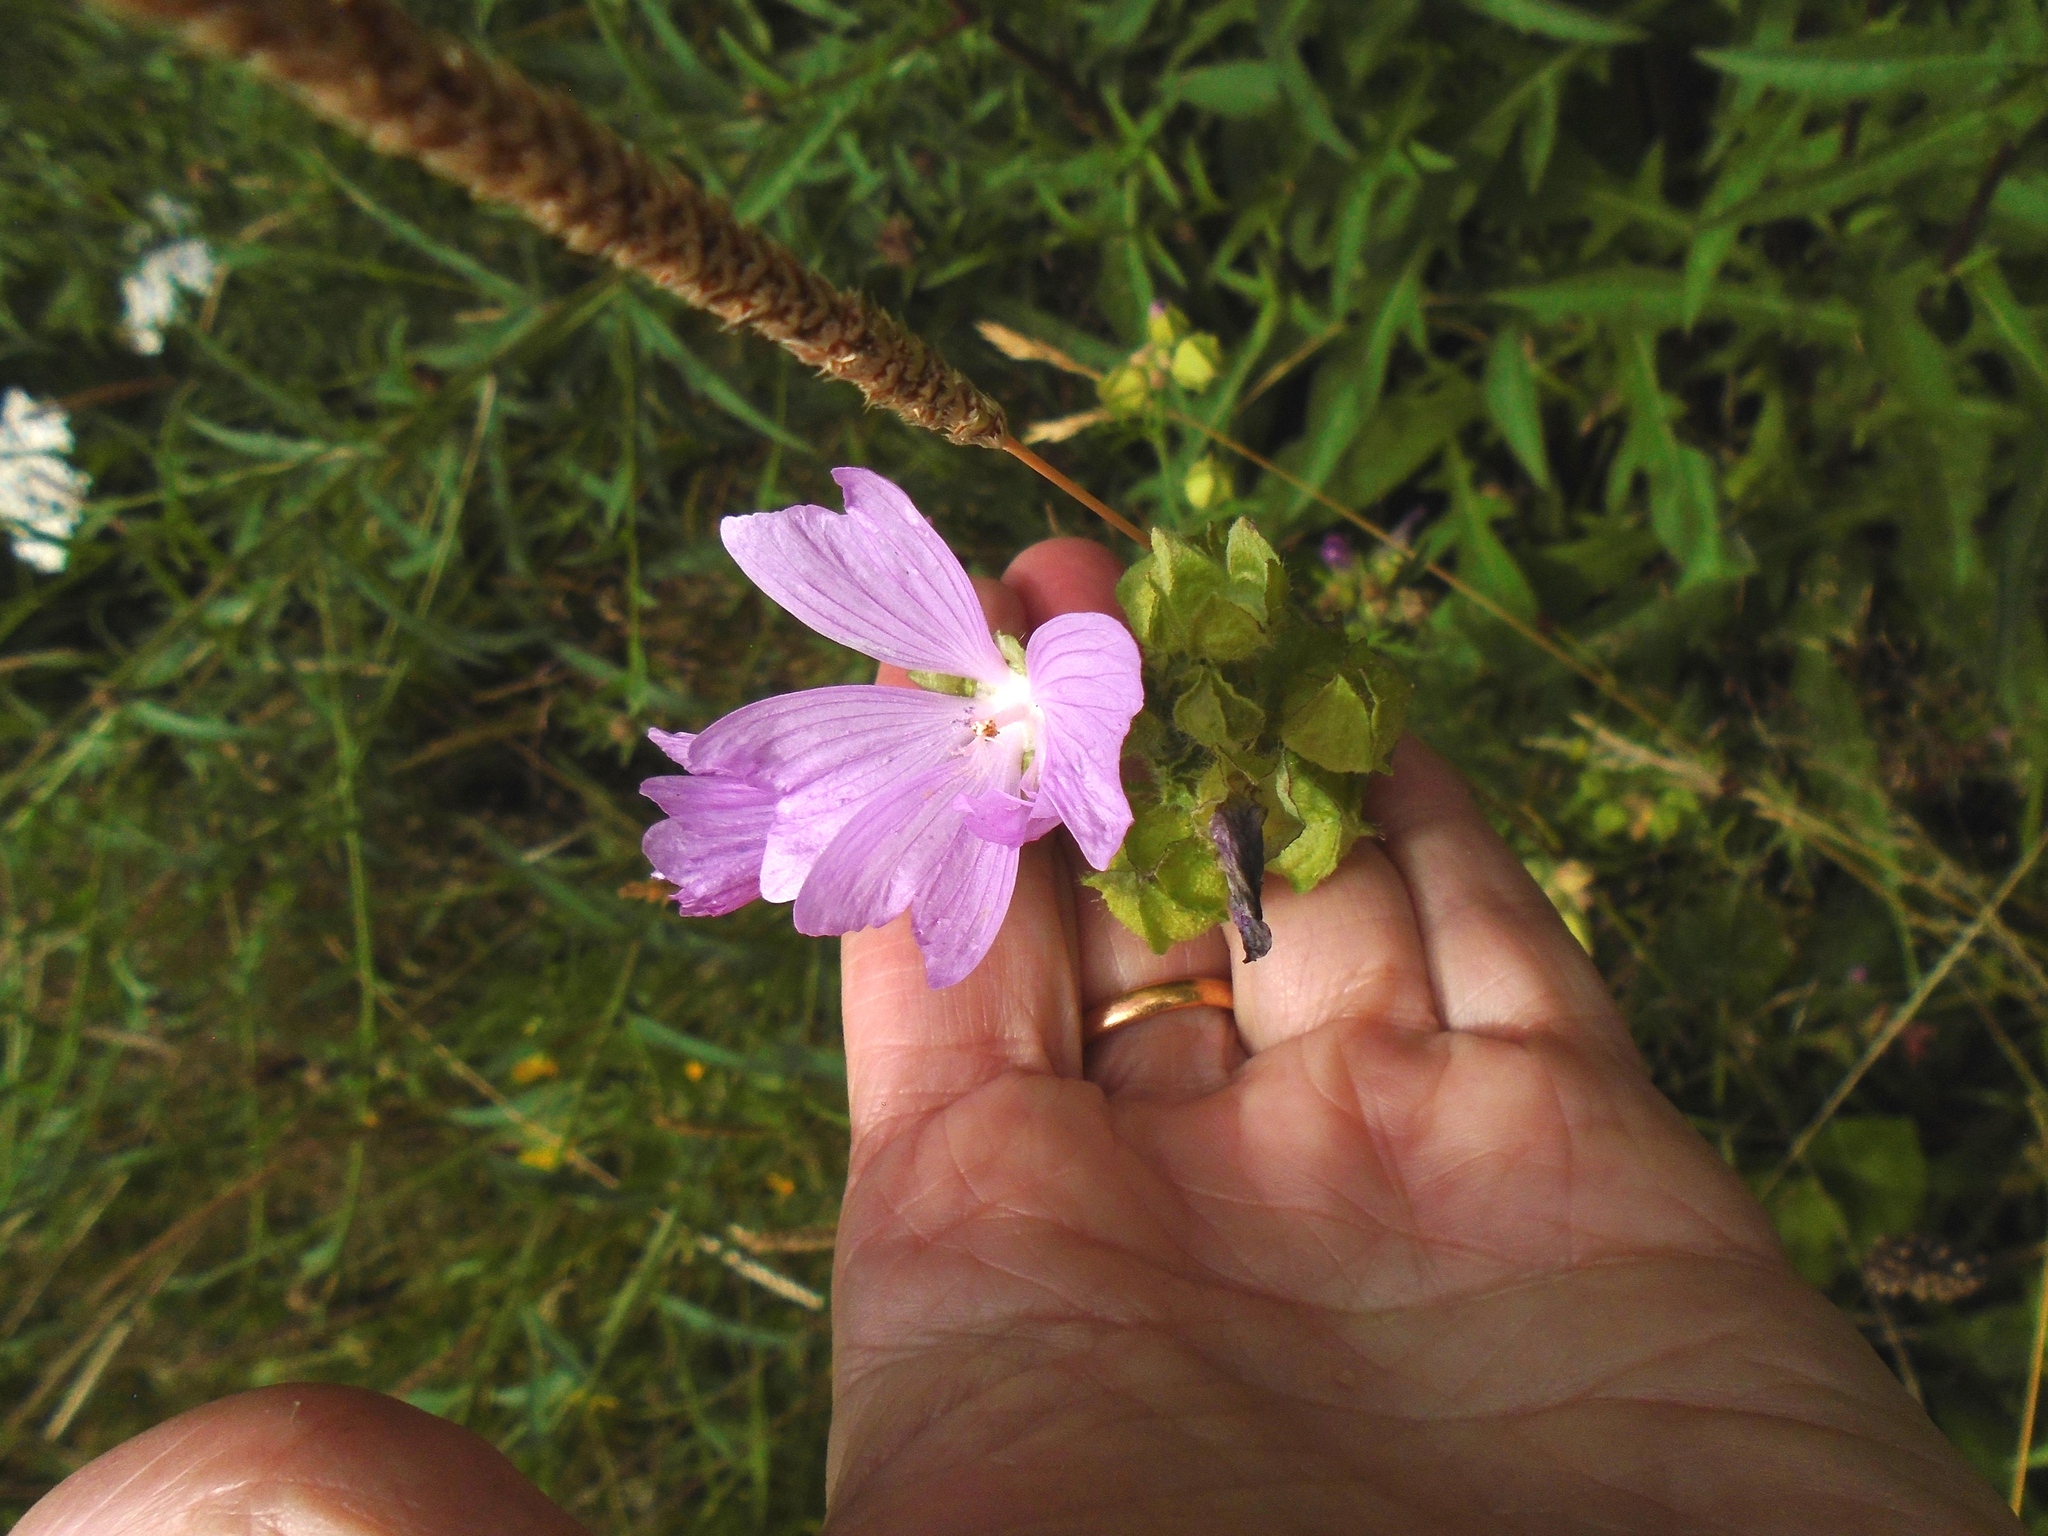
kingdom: Plantae
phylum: Tracheophyta
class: Magnoliopsida
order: Malvales
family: Malvaceae
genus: Malva
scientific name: Malva moschata
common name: Musk mallow
